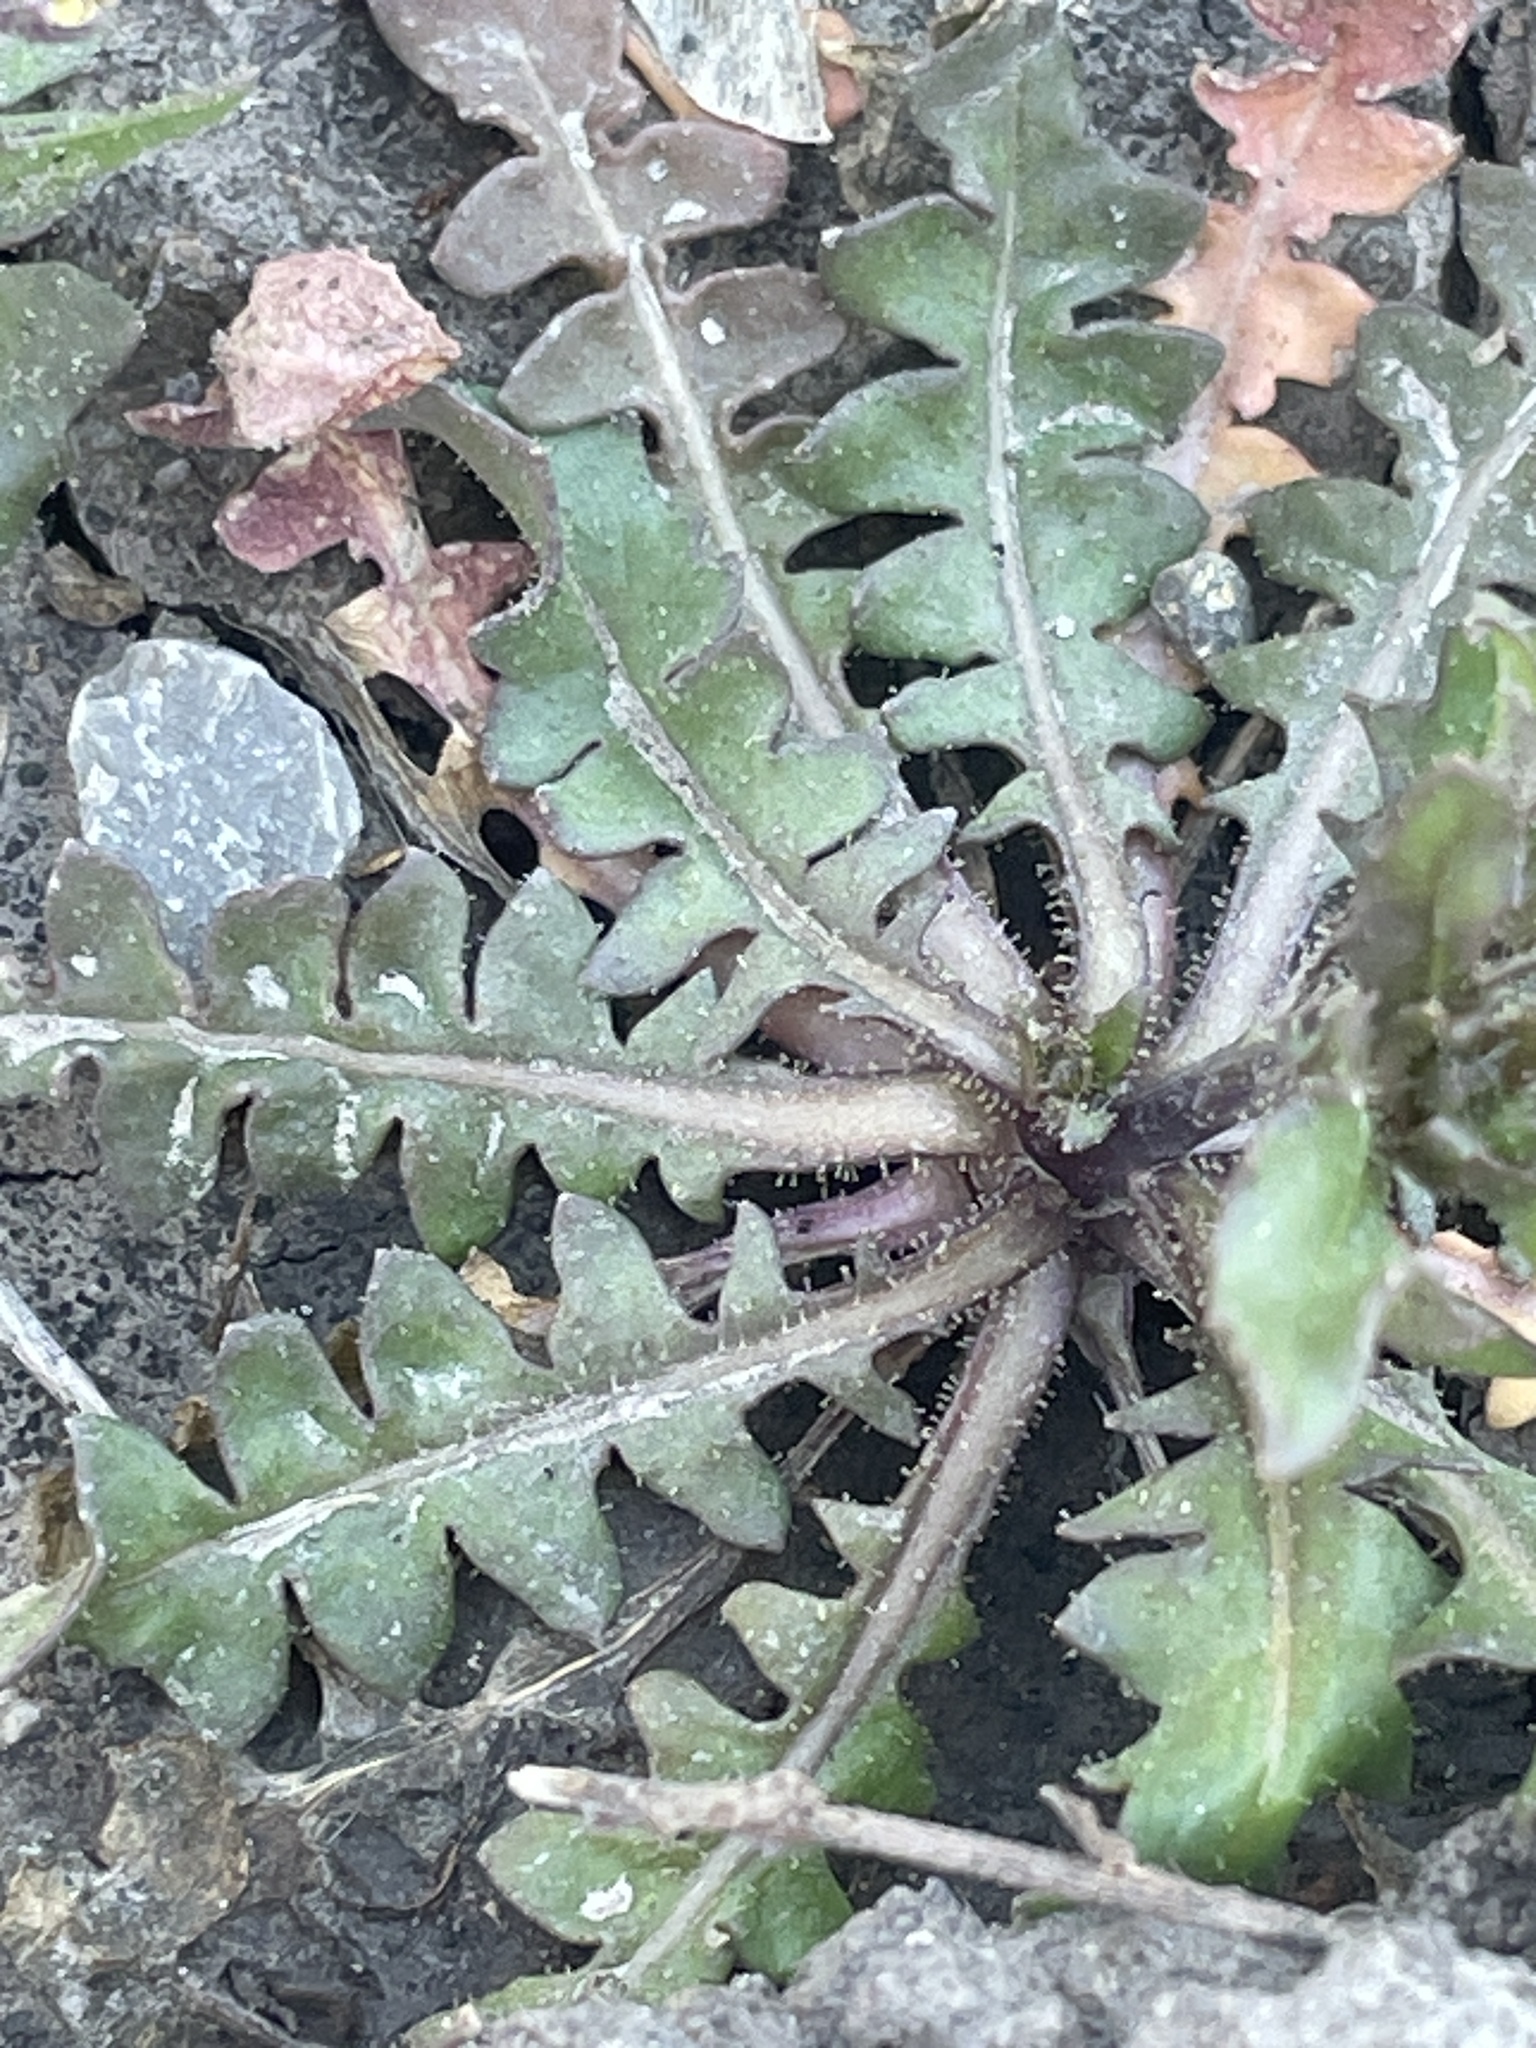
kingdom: Plantae
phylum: Tracheophyta
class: Magnoliopsida
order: Brassicales
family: Brassicaceae
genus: Chorispora
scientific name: Chorispora tenella
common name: Crossflower
